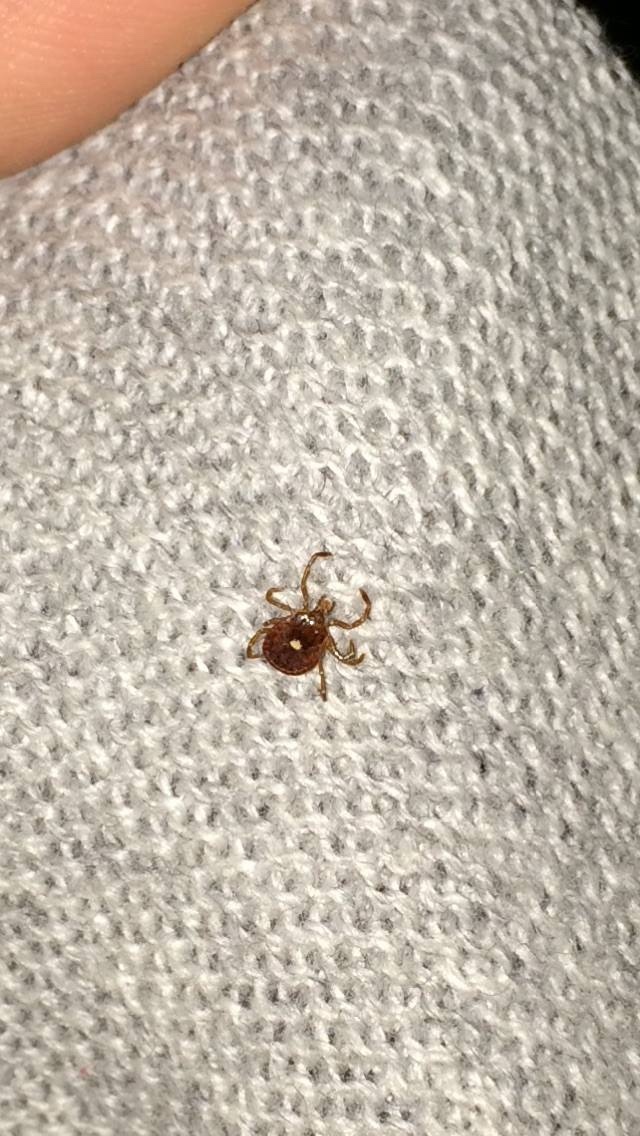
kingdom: Animalia
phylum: Arthropoda
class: Arachnida
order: Ixodida
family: Ixodidae
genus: Amblyomma
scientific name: Amblyomma americanum
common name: Lone star tick
